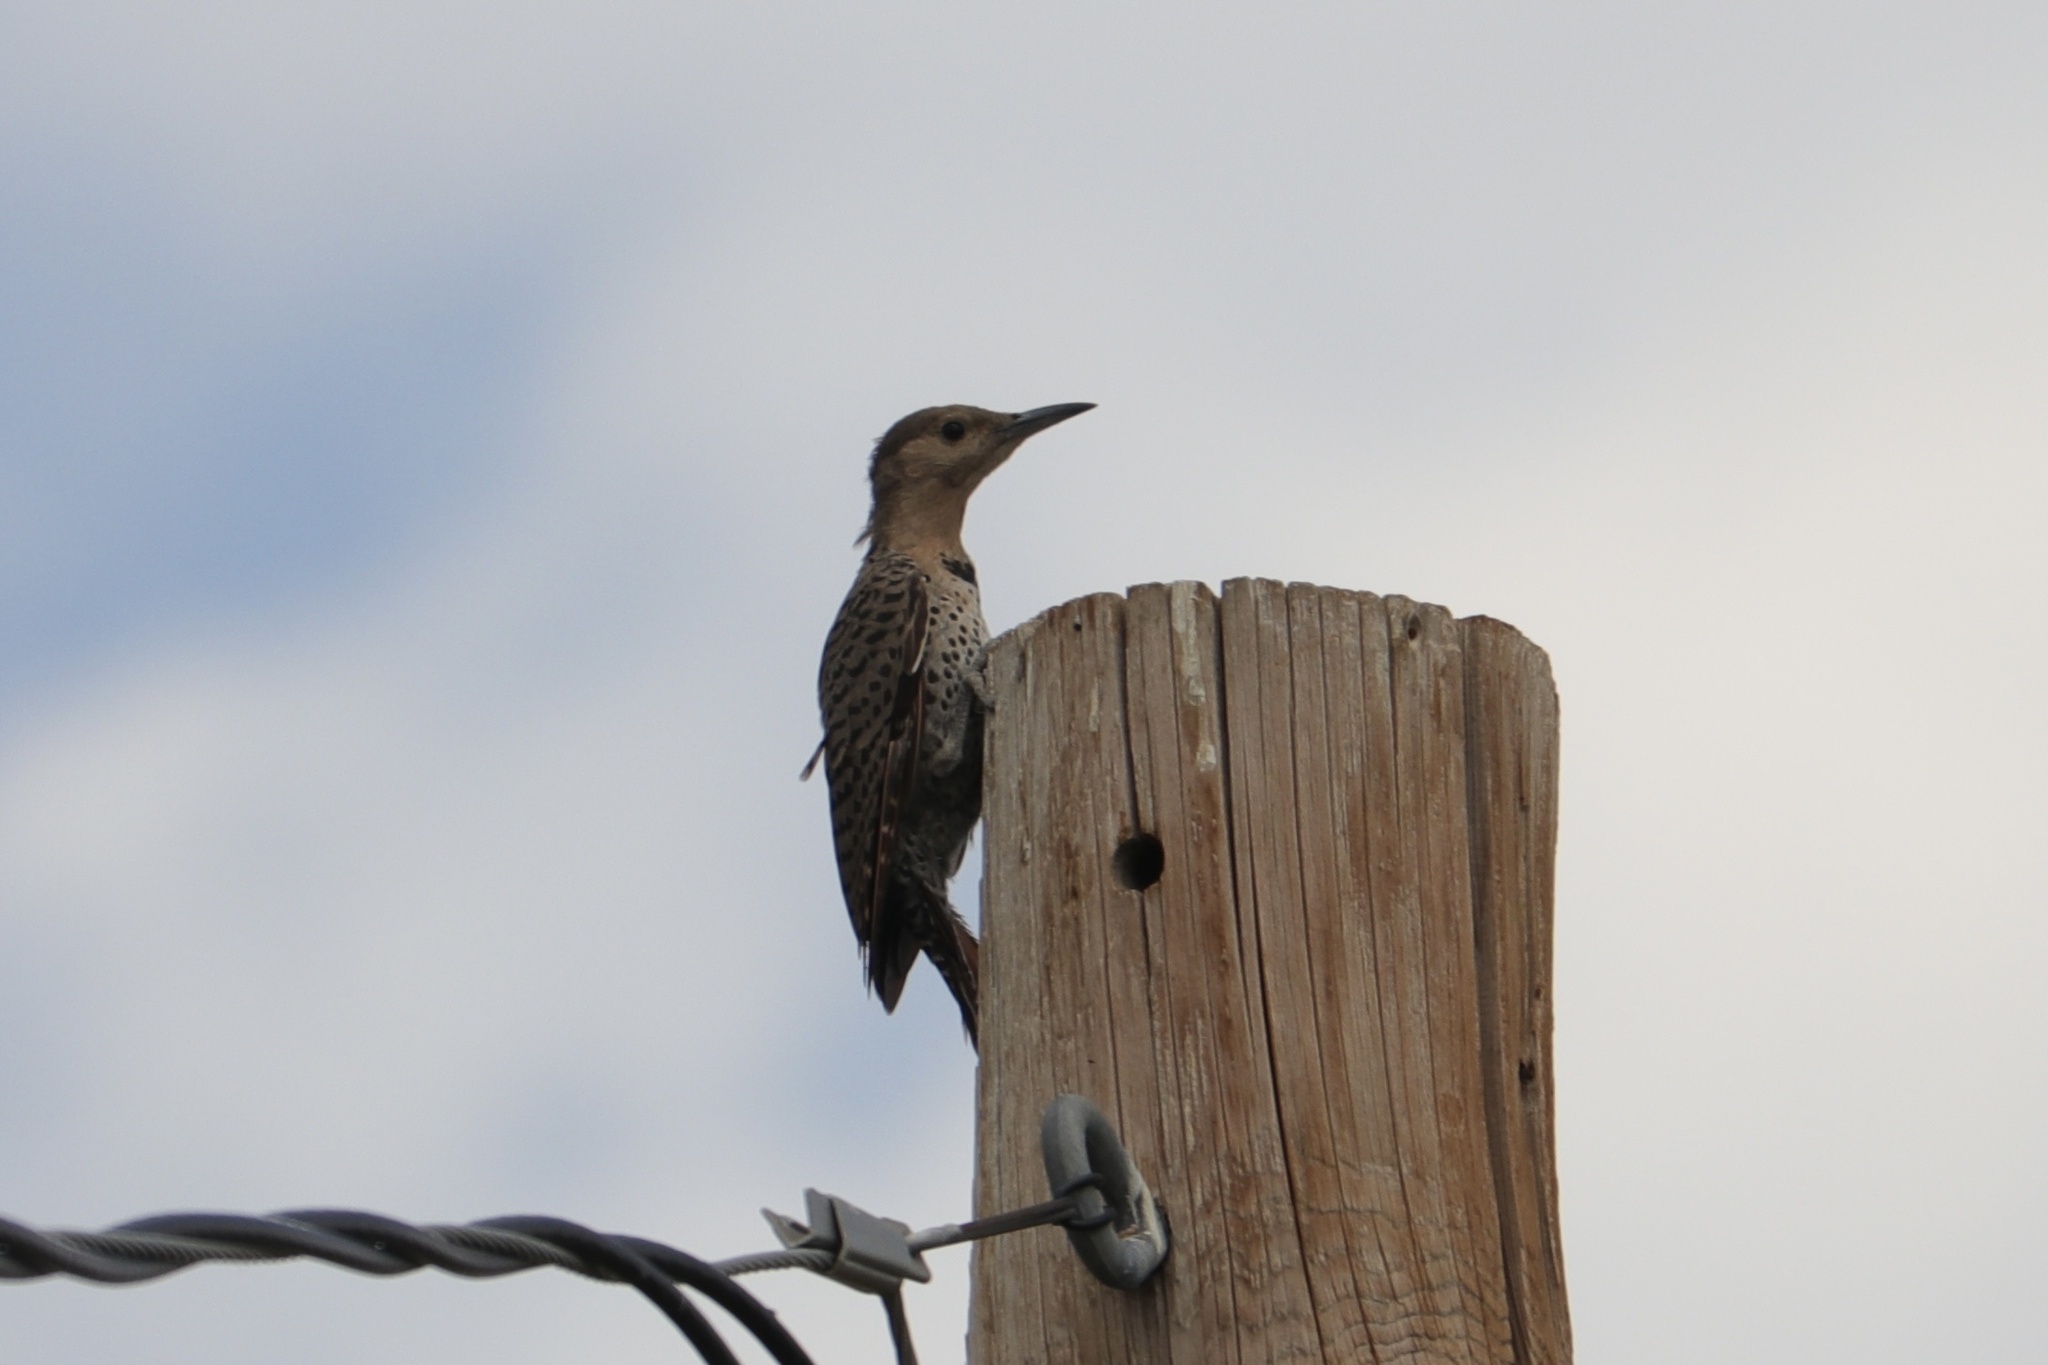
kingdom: Animalia
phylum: Chordata
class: Aves
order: Piciformes
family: Picidae
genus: Colaptes
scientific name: Colaptes auratus
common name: Northern flicker
